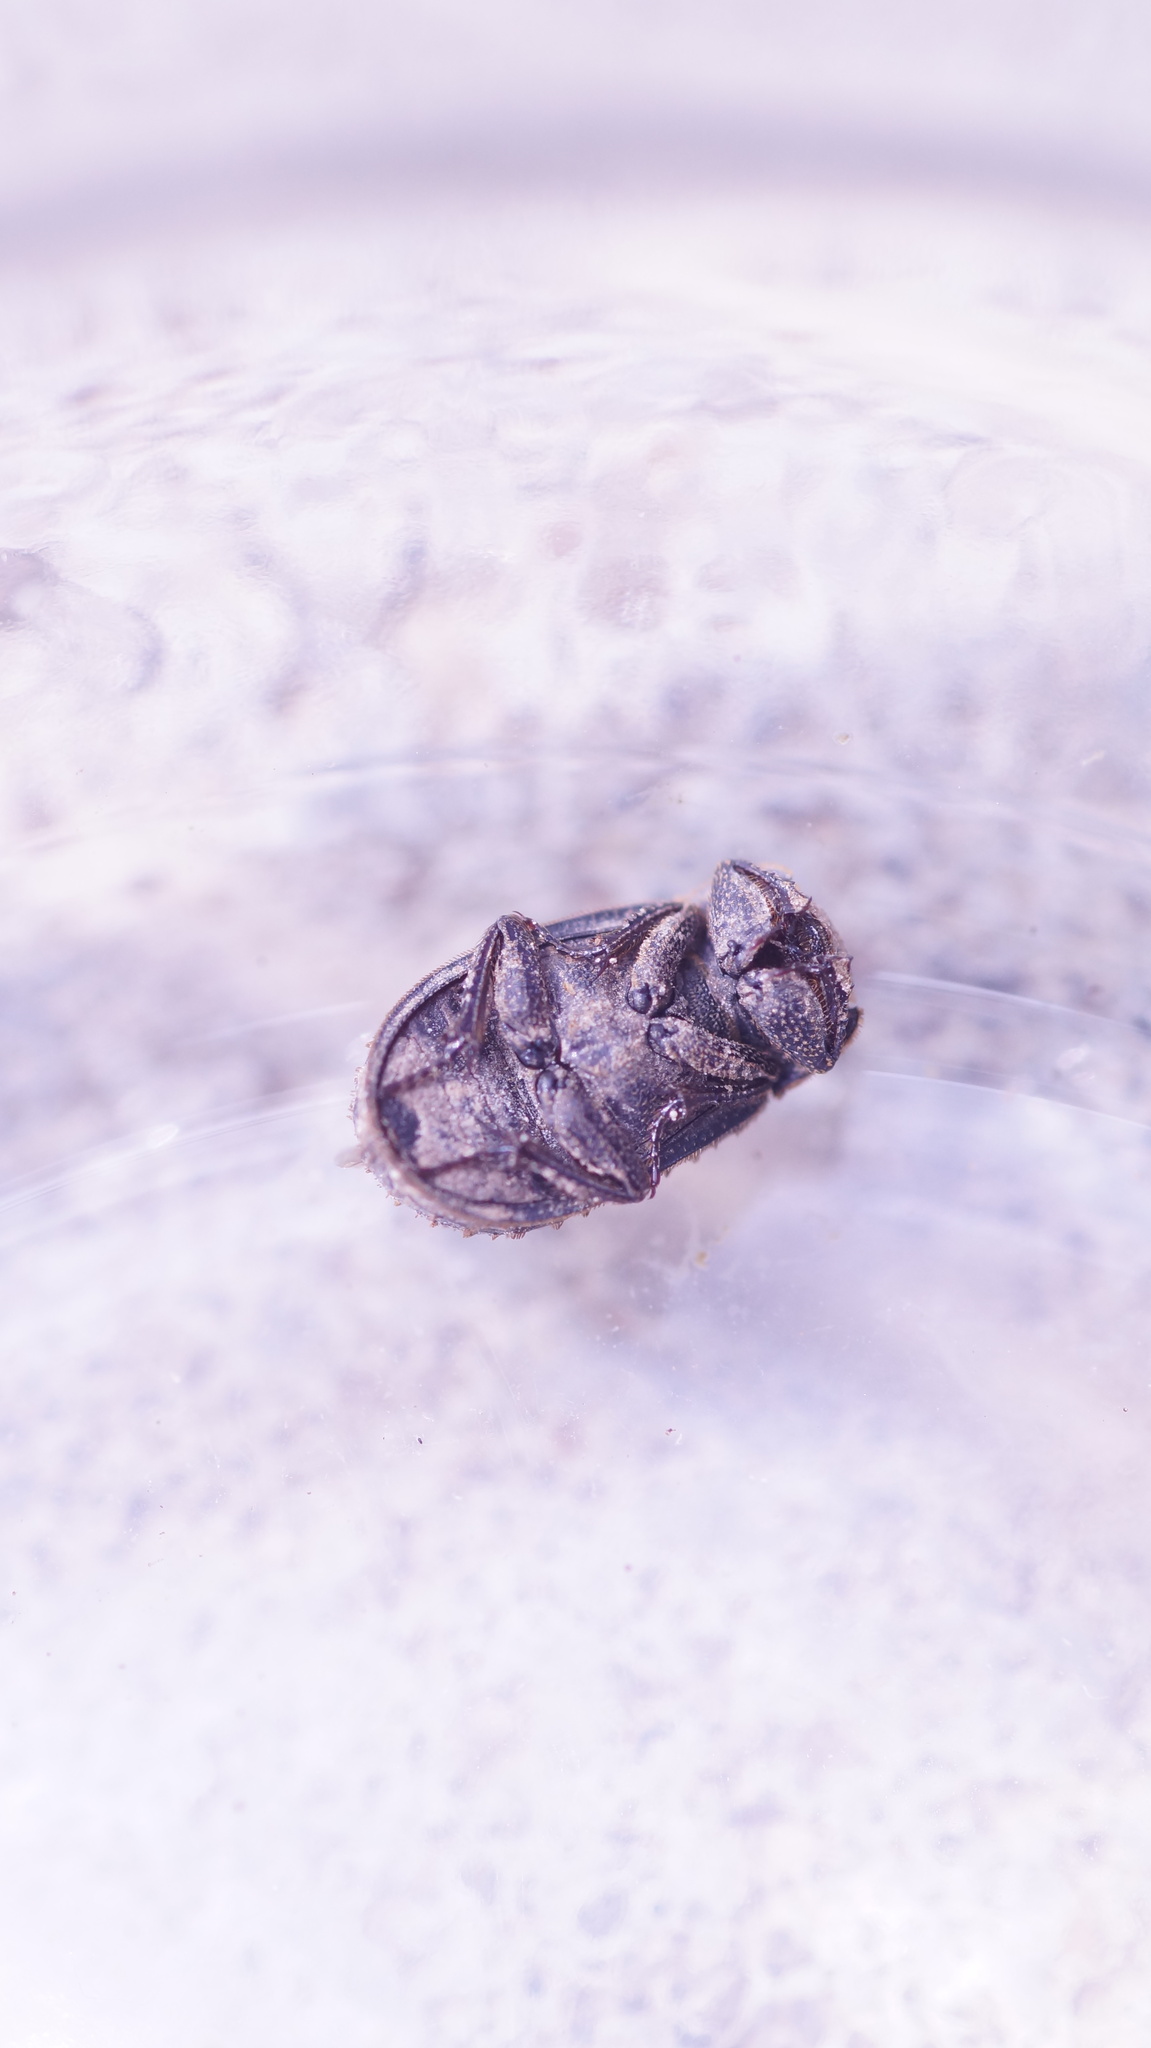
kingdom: Animalia
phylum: Arthropoda
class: Insecta
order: Coleoptera
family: Trogidae
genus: Trox
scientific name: Trox scaber
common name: Hide beetle
